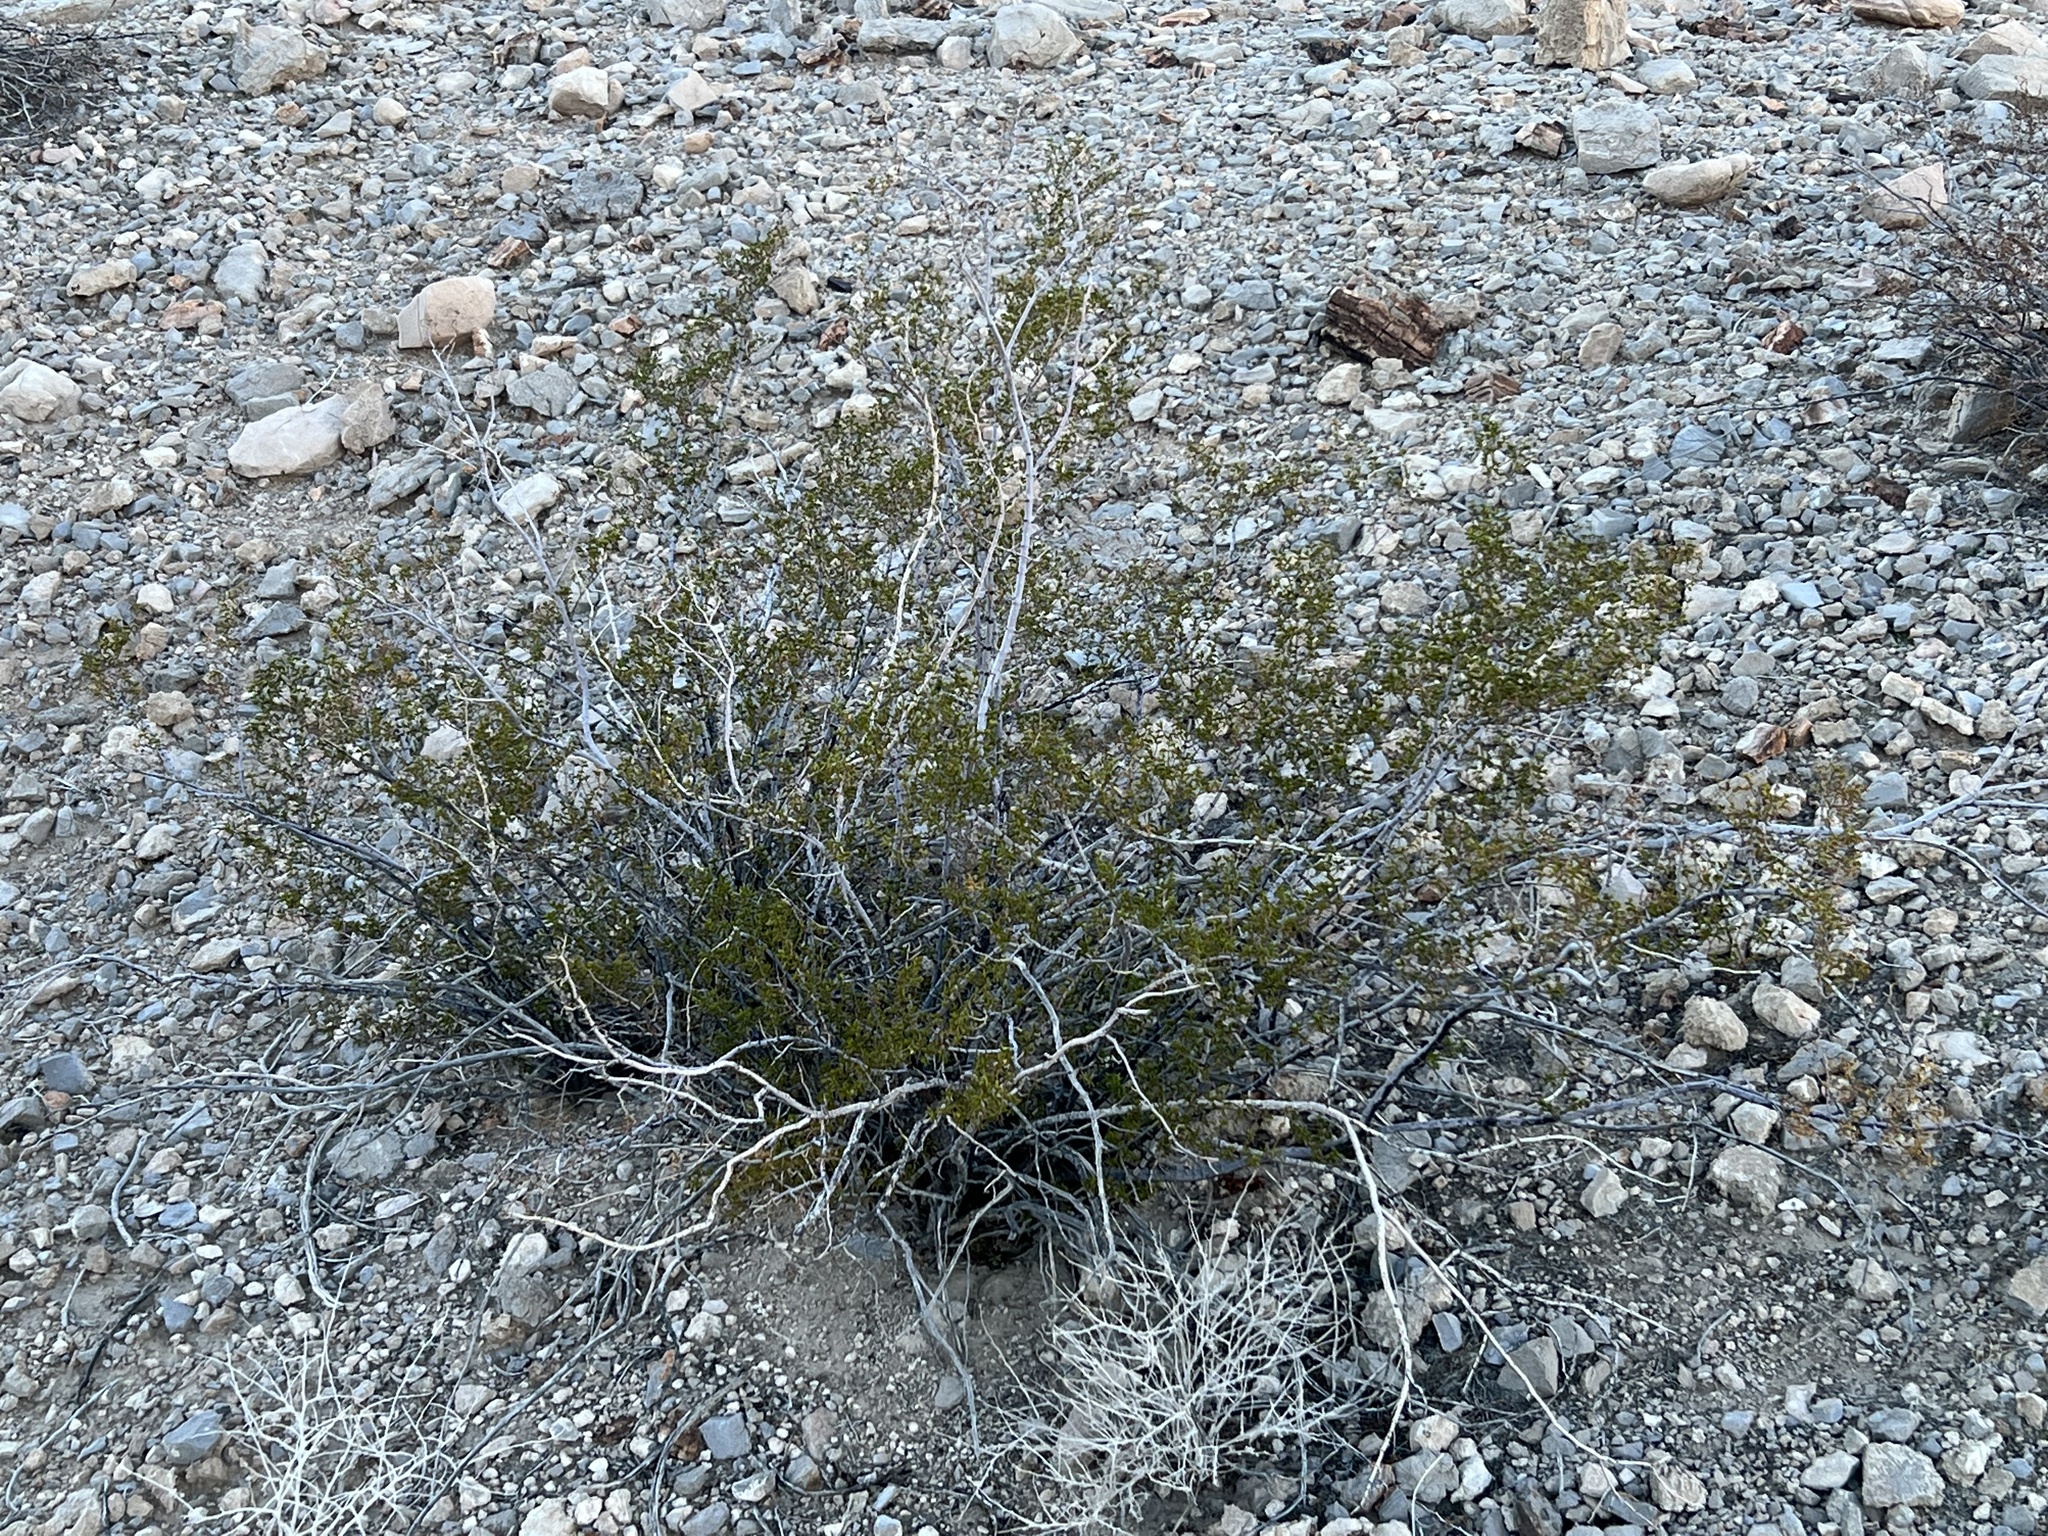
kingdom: Plantae
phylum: Tracheophyta
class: Magnoliopsida
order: Zygophyllales
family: Zygophyllaceae
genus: Larrea
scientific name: Larrea tridentata
